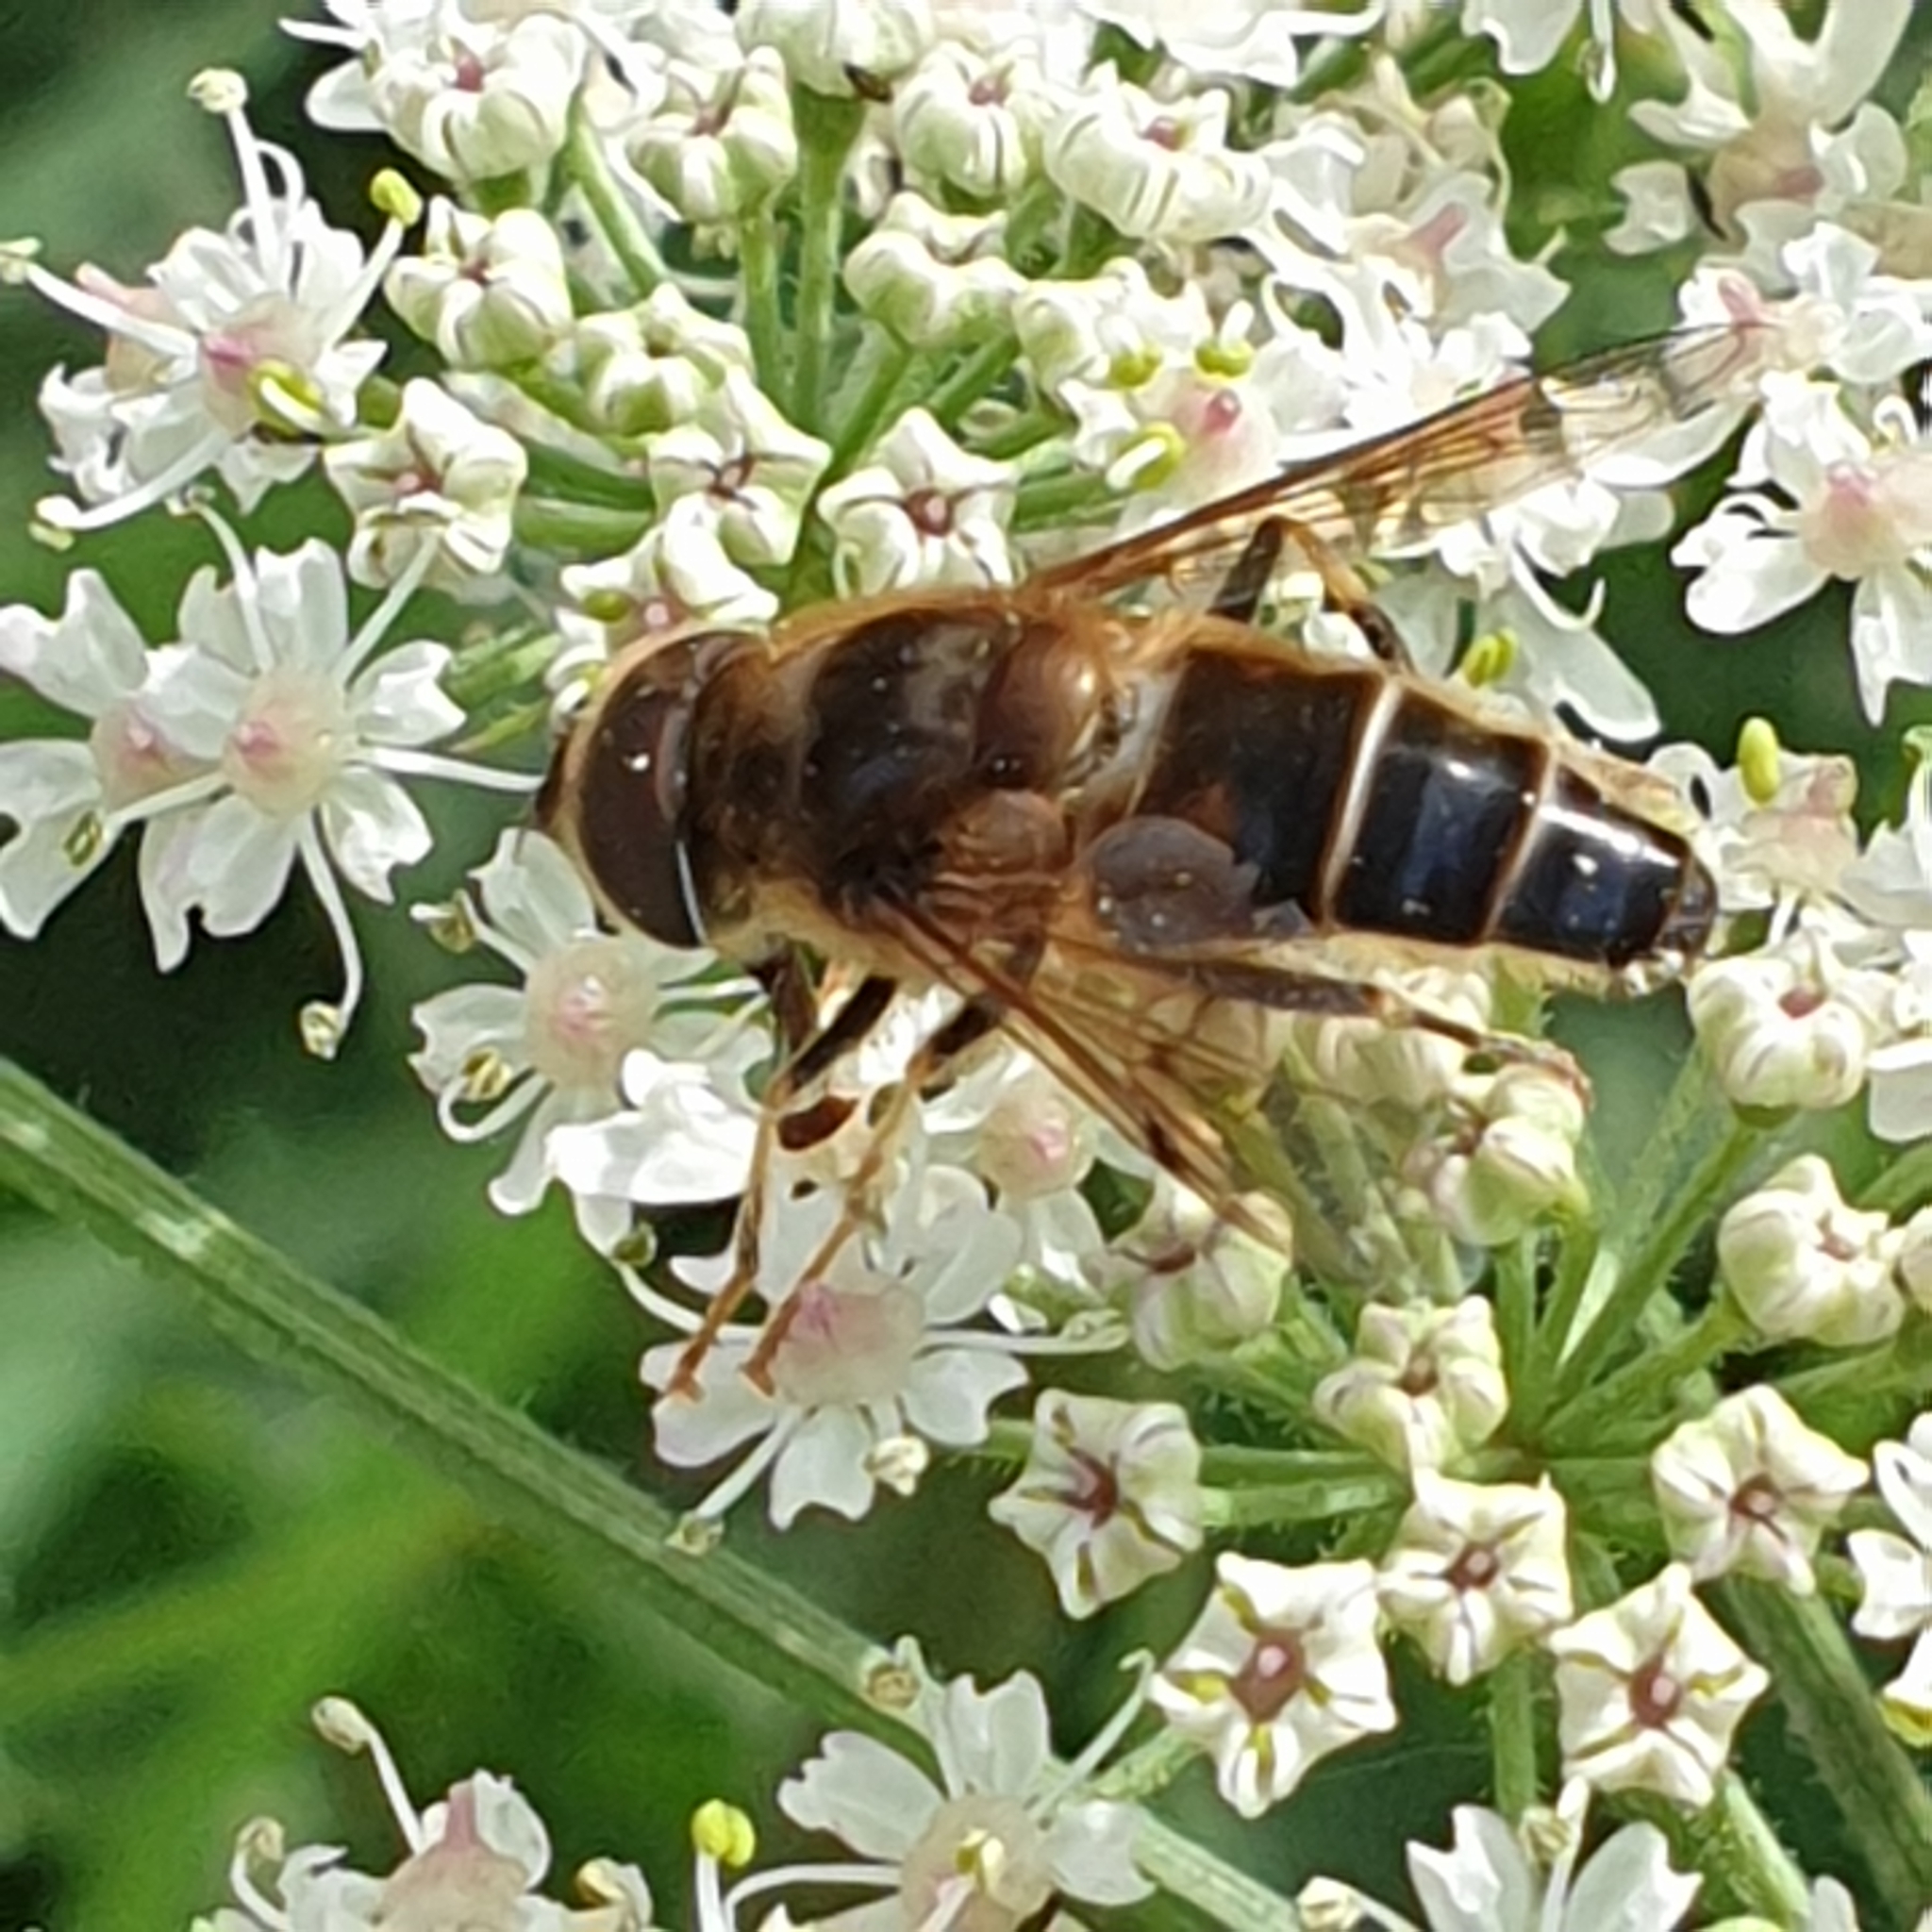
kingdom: Animalia
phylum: Arthropoda
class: Insecta
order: Diptera
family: Syrphidae
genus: Eristalis
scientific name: Eristalis pertinax
